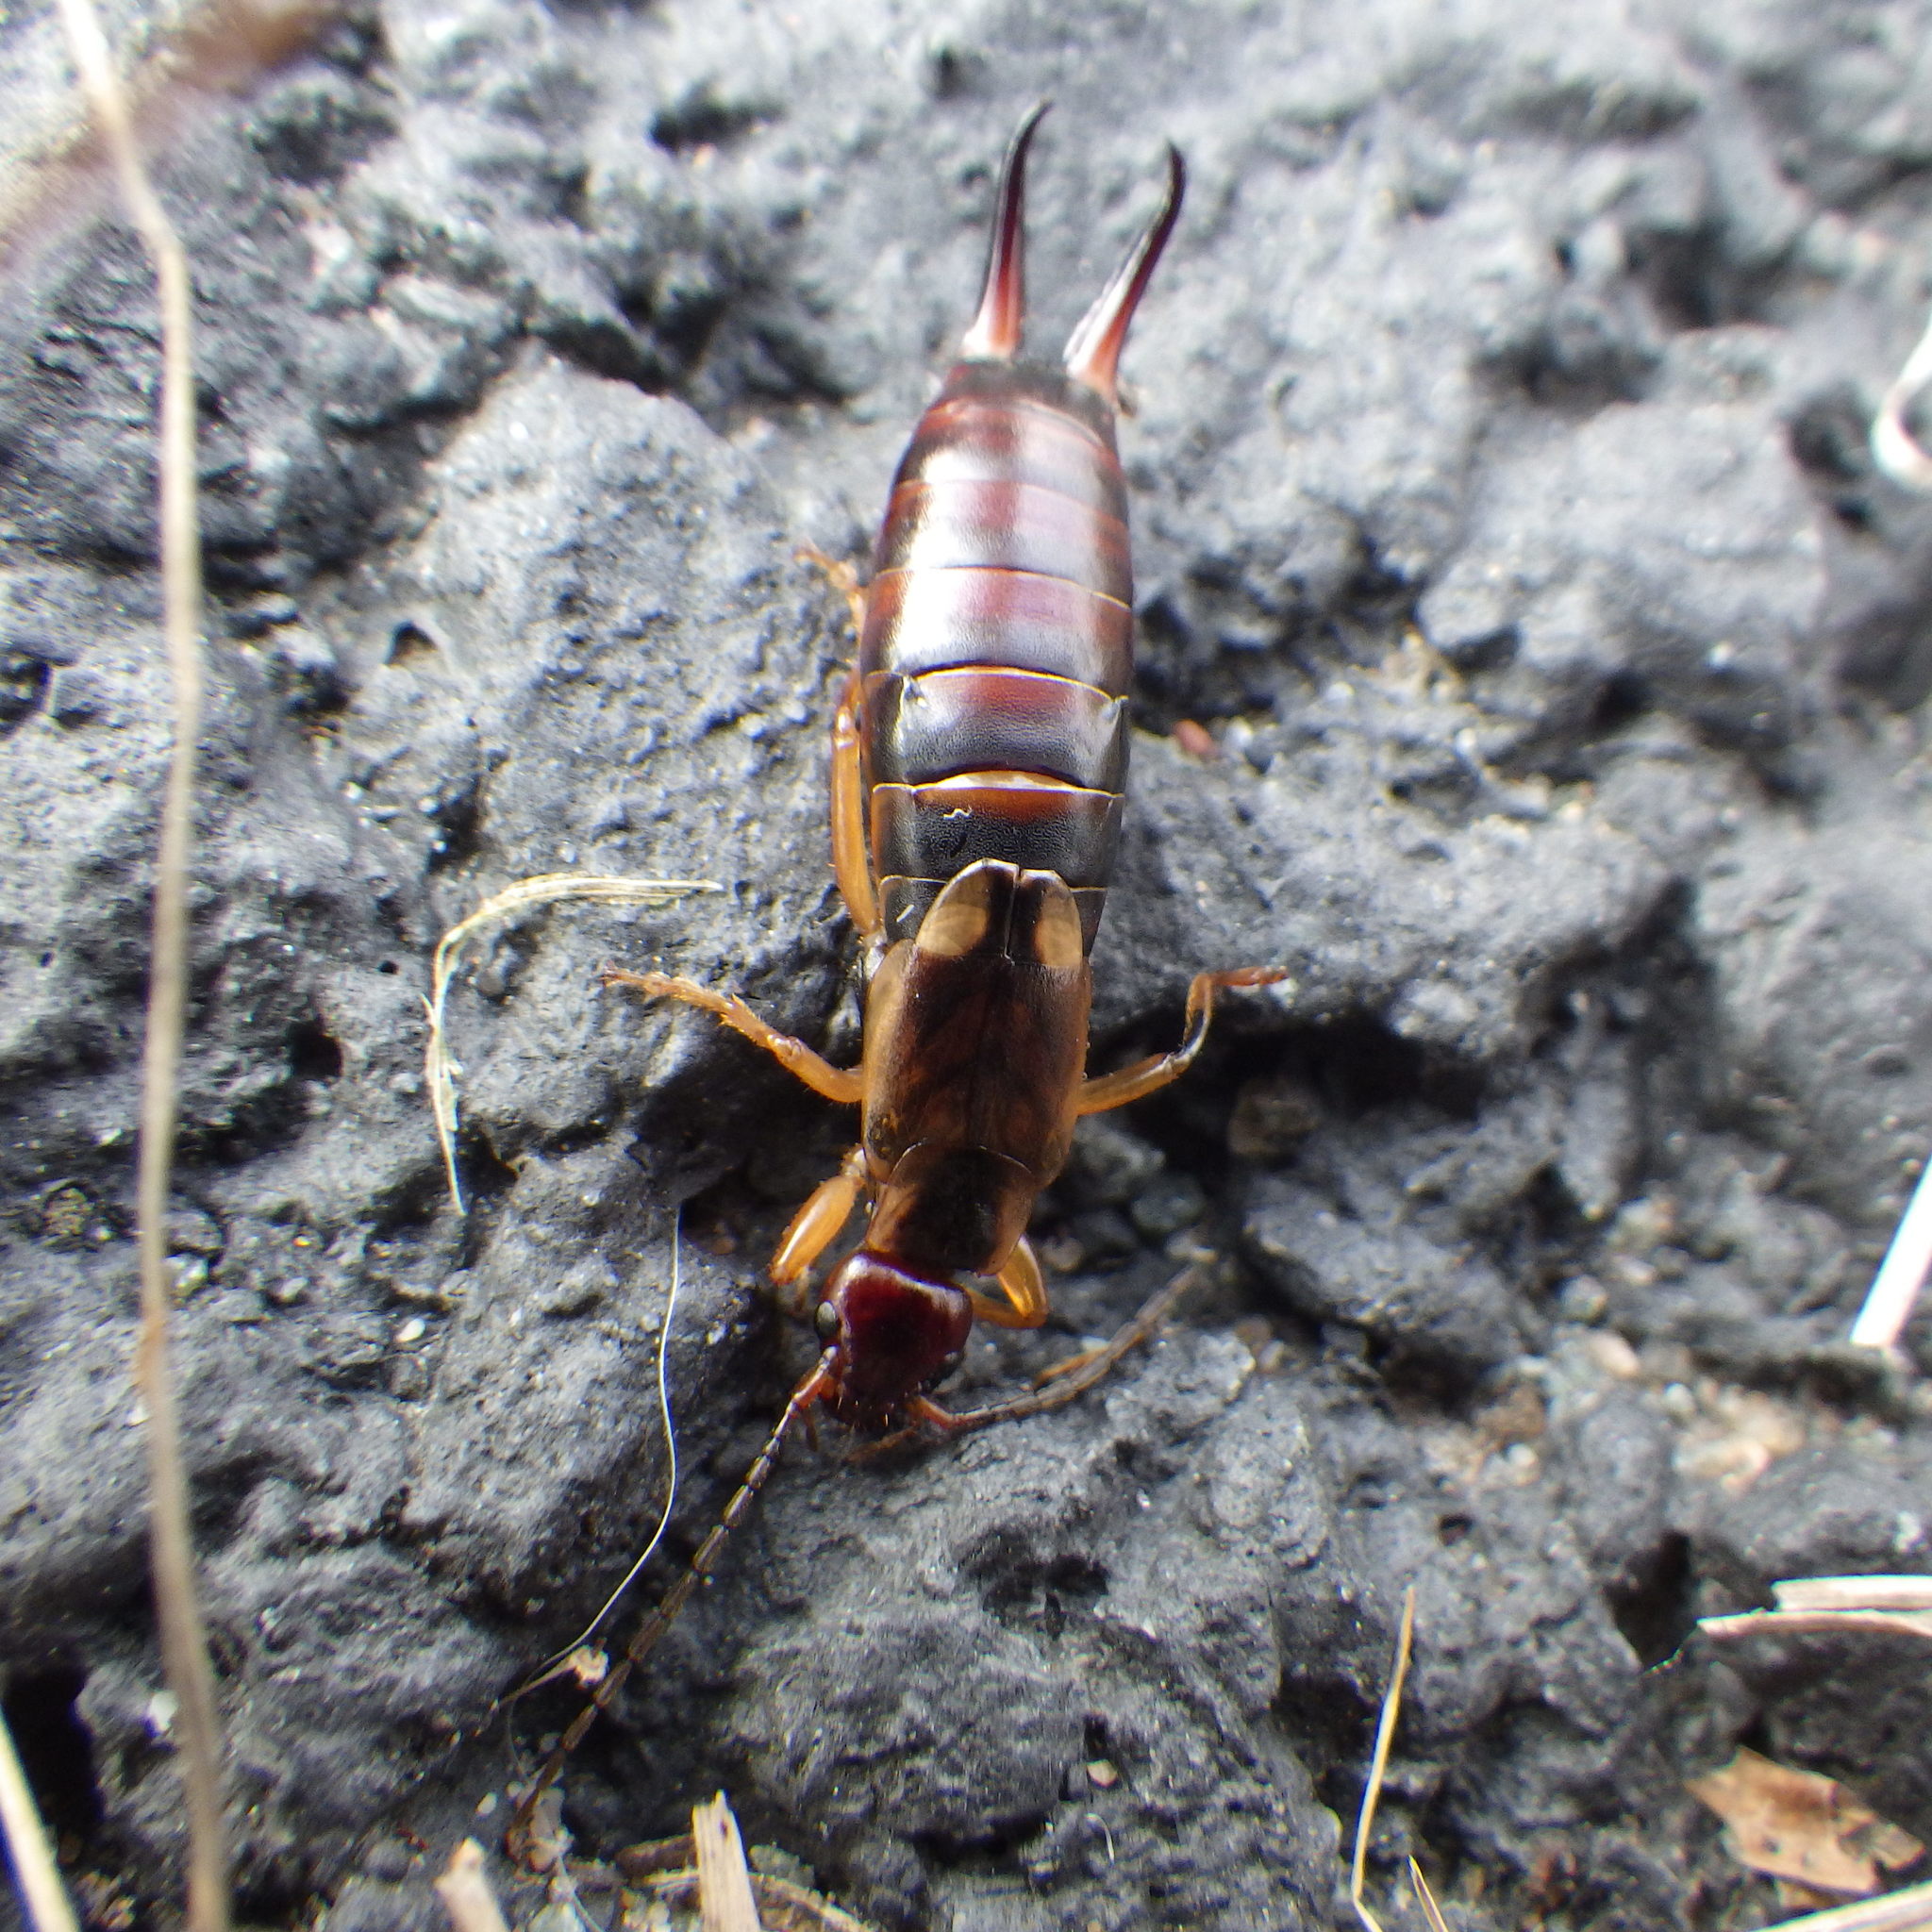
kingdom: Animalia
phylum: Arthropoda
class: Insecta
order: Dermaptera
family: Forficulidae
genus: Forficula
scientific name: Forficula
